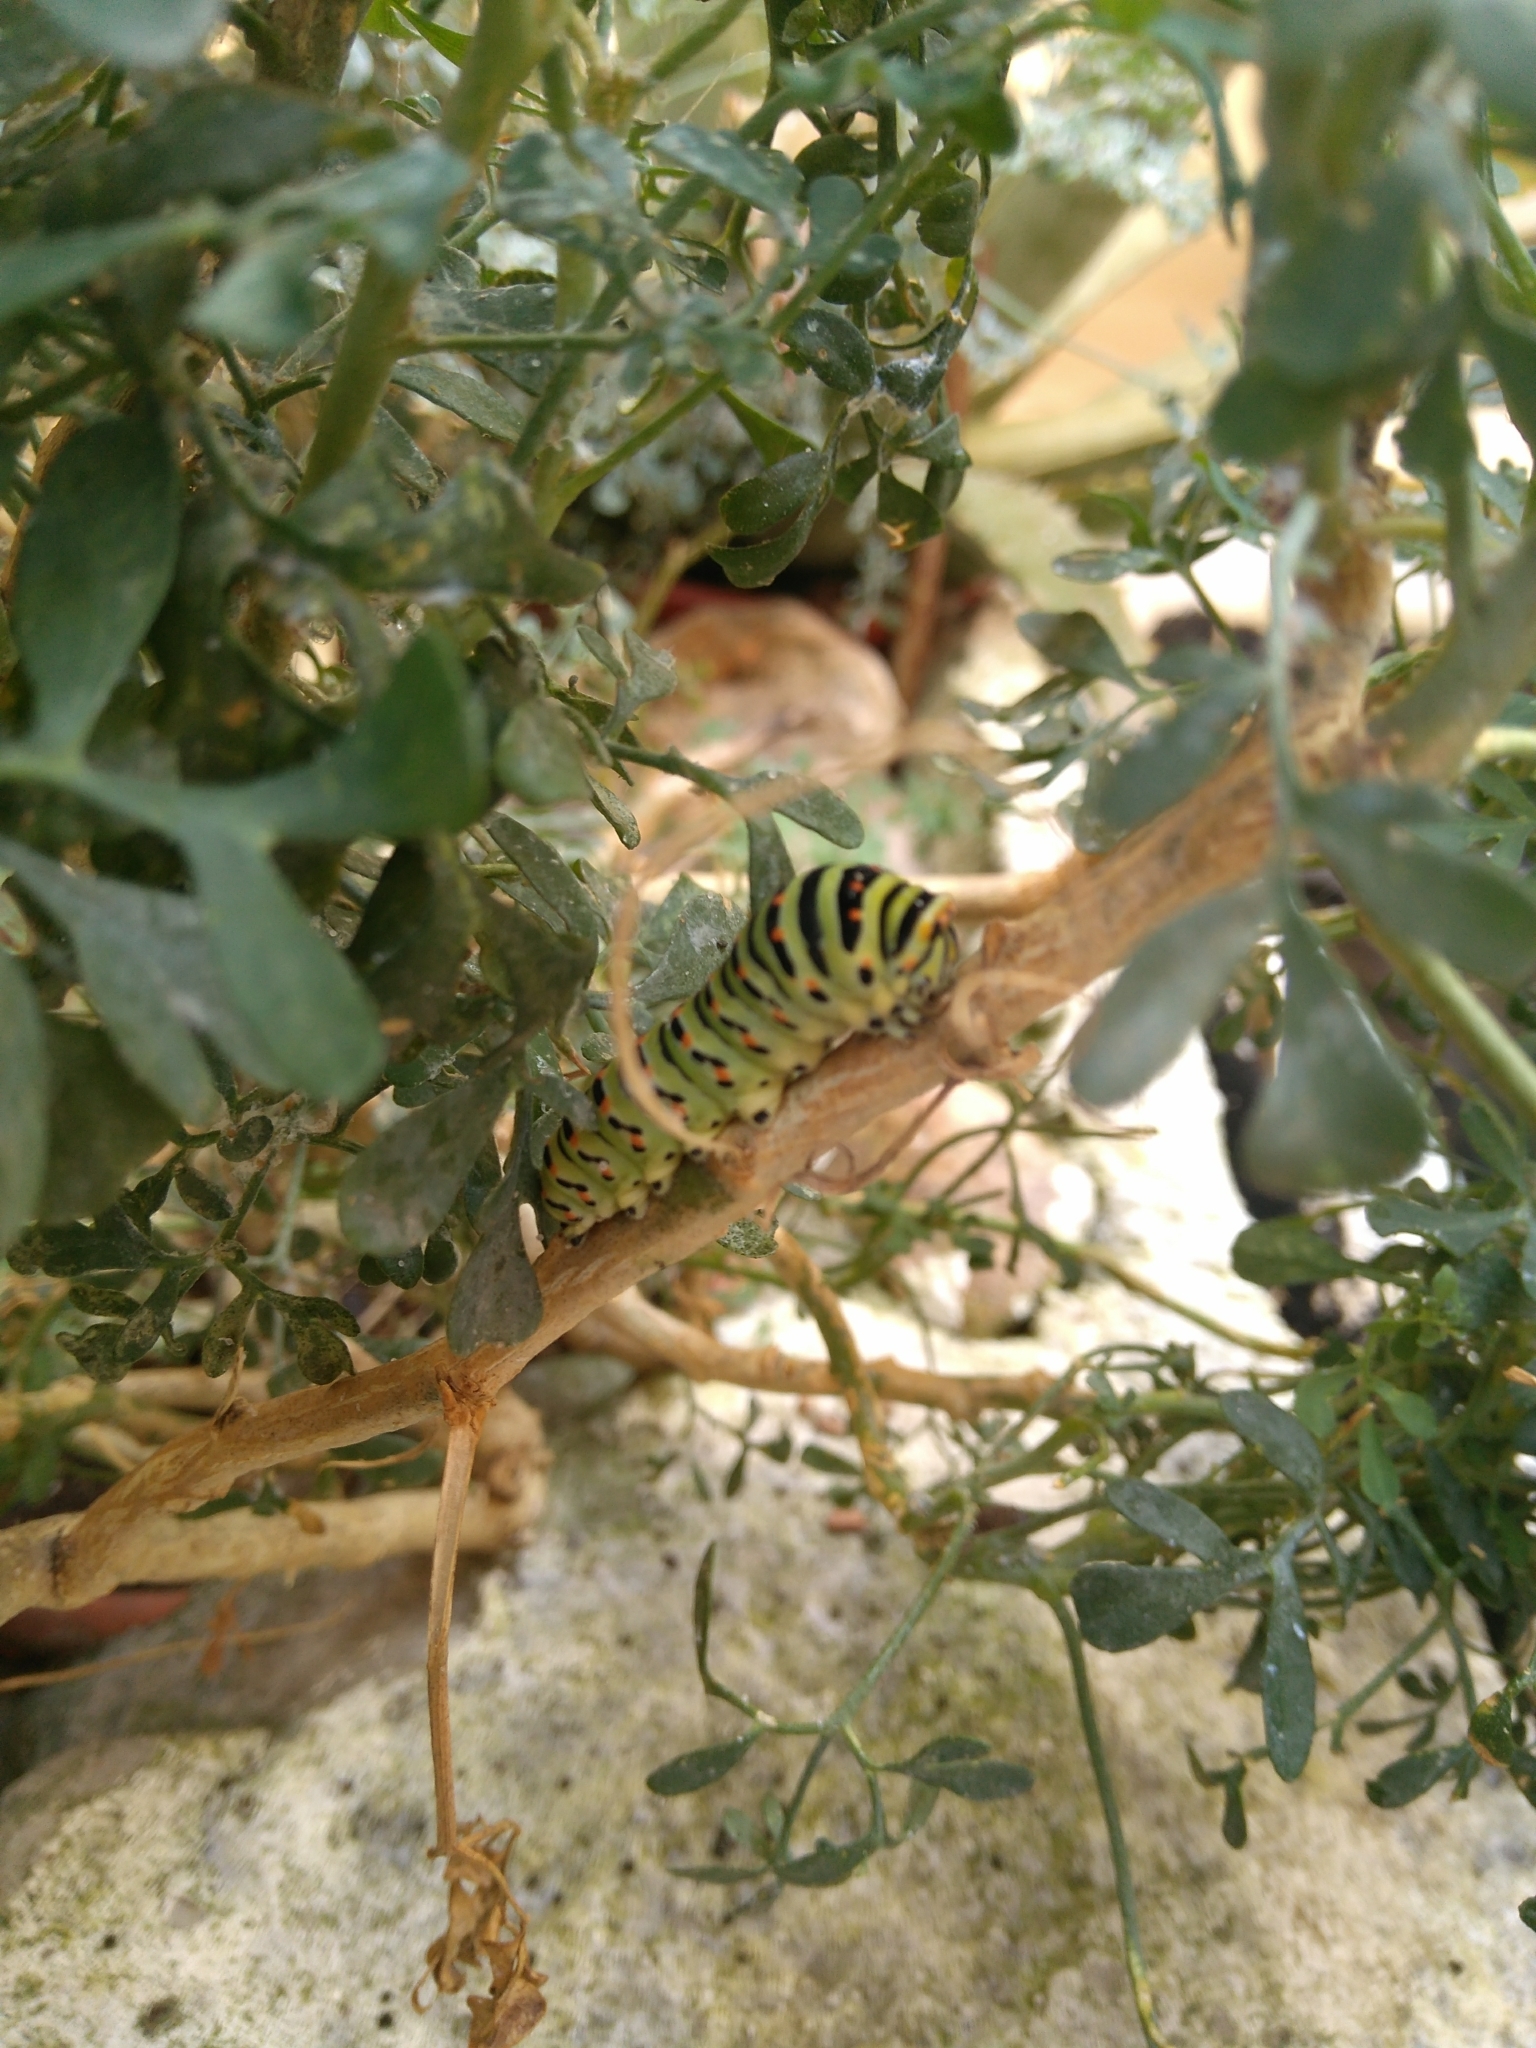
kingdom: Animalia
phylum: Arthropoda
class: Insecta
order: Lepidoptera
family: Papilionidae
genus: Papilio
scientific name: Papilio machaon
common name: Swallowtail
